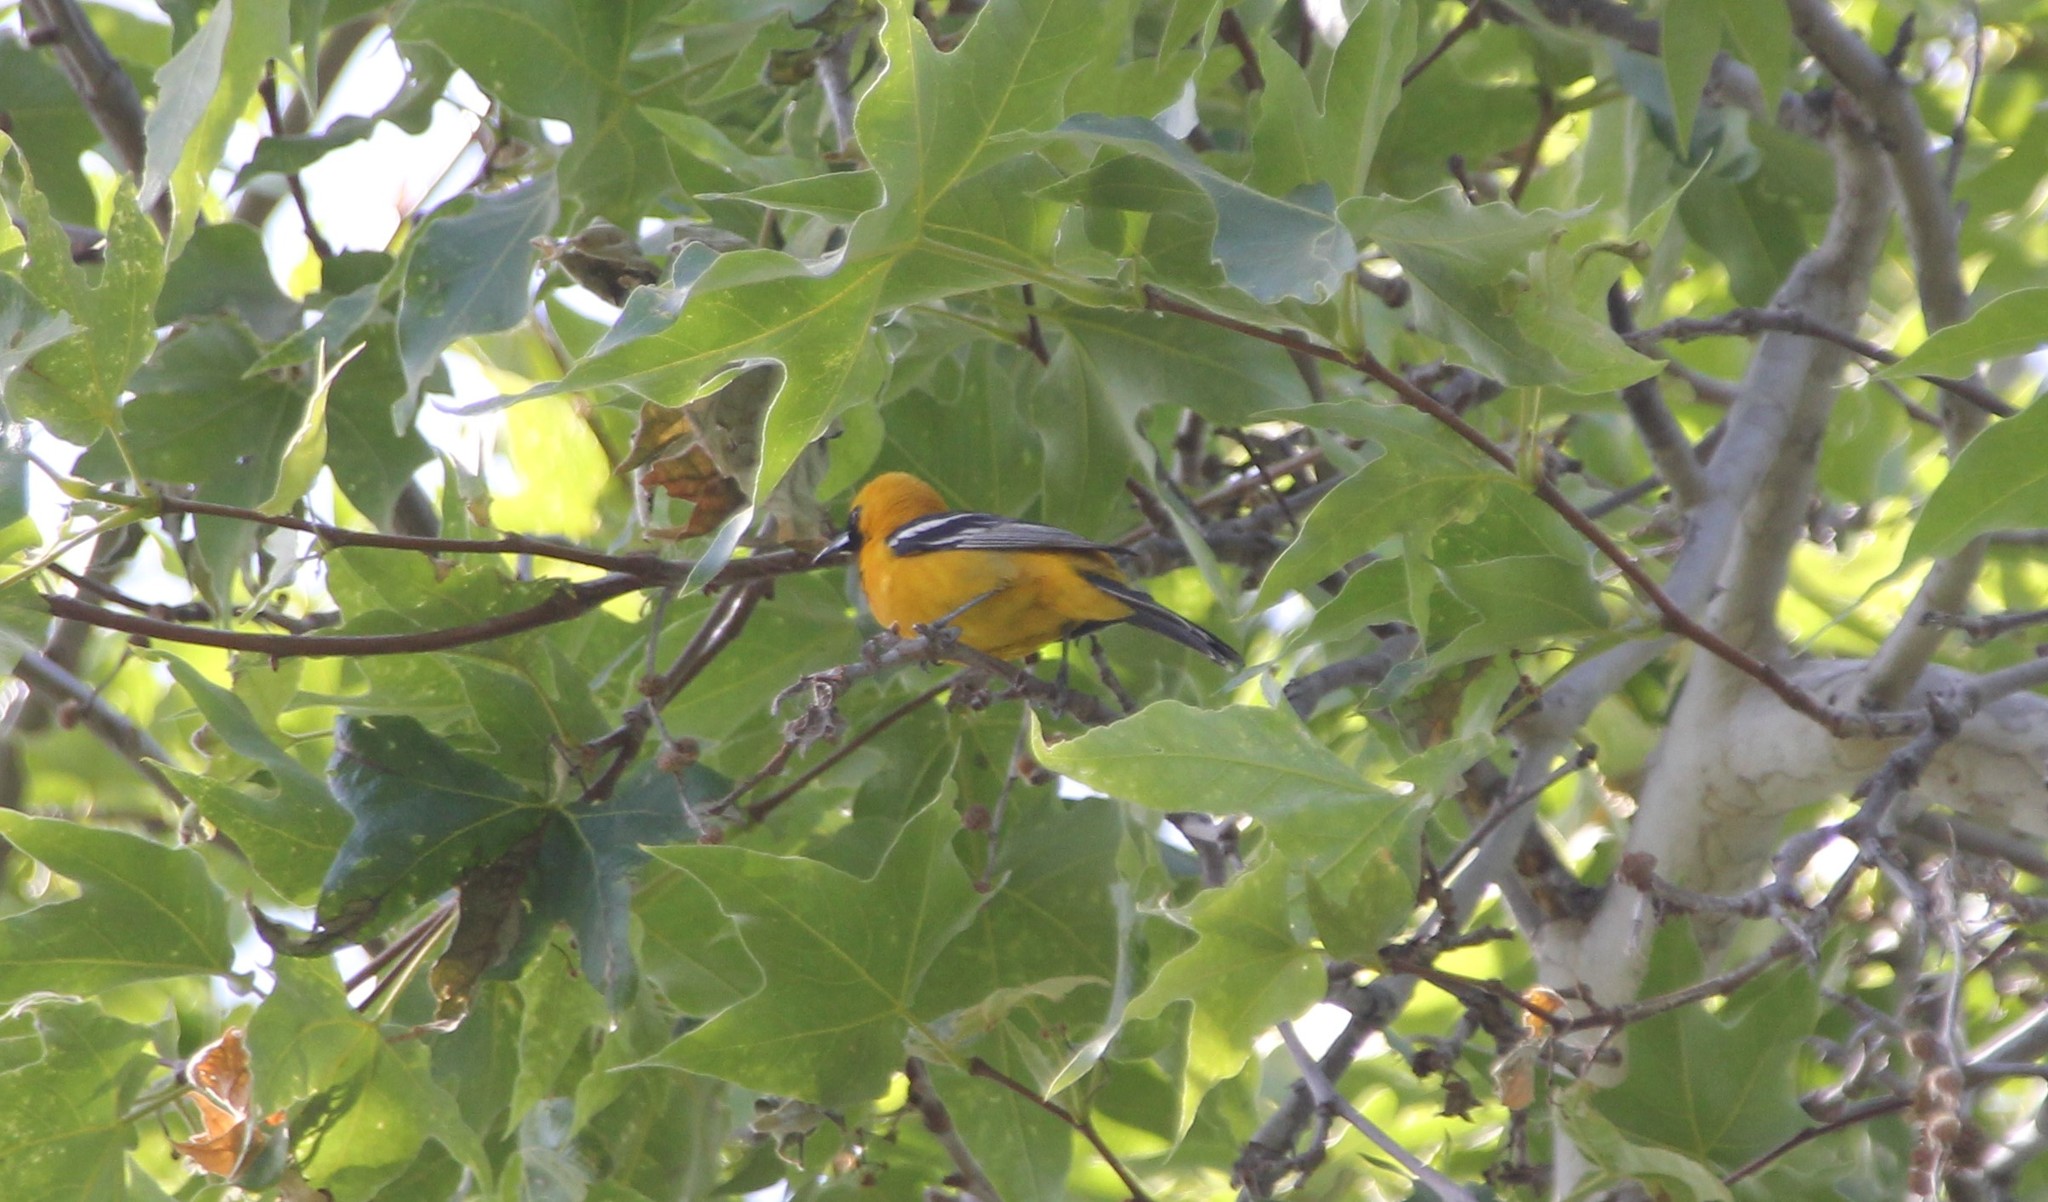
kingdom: Animalia
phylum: Chordata
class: Aves
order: Passeriformes
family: Icteridae
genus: Icterus
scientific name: Icterus cucullatus
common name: Hooded oriole
